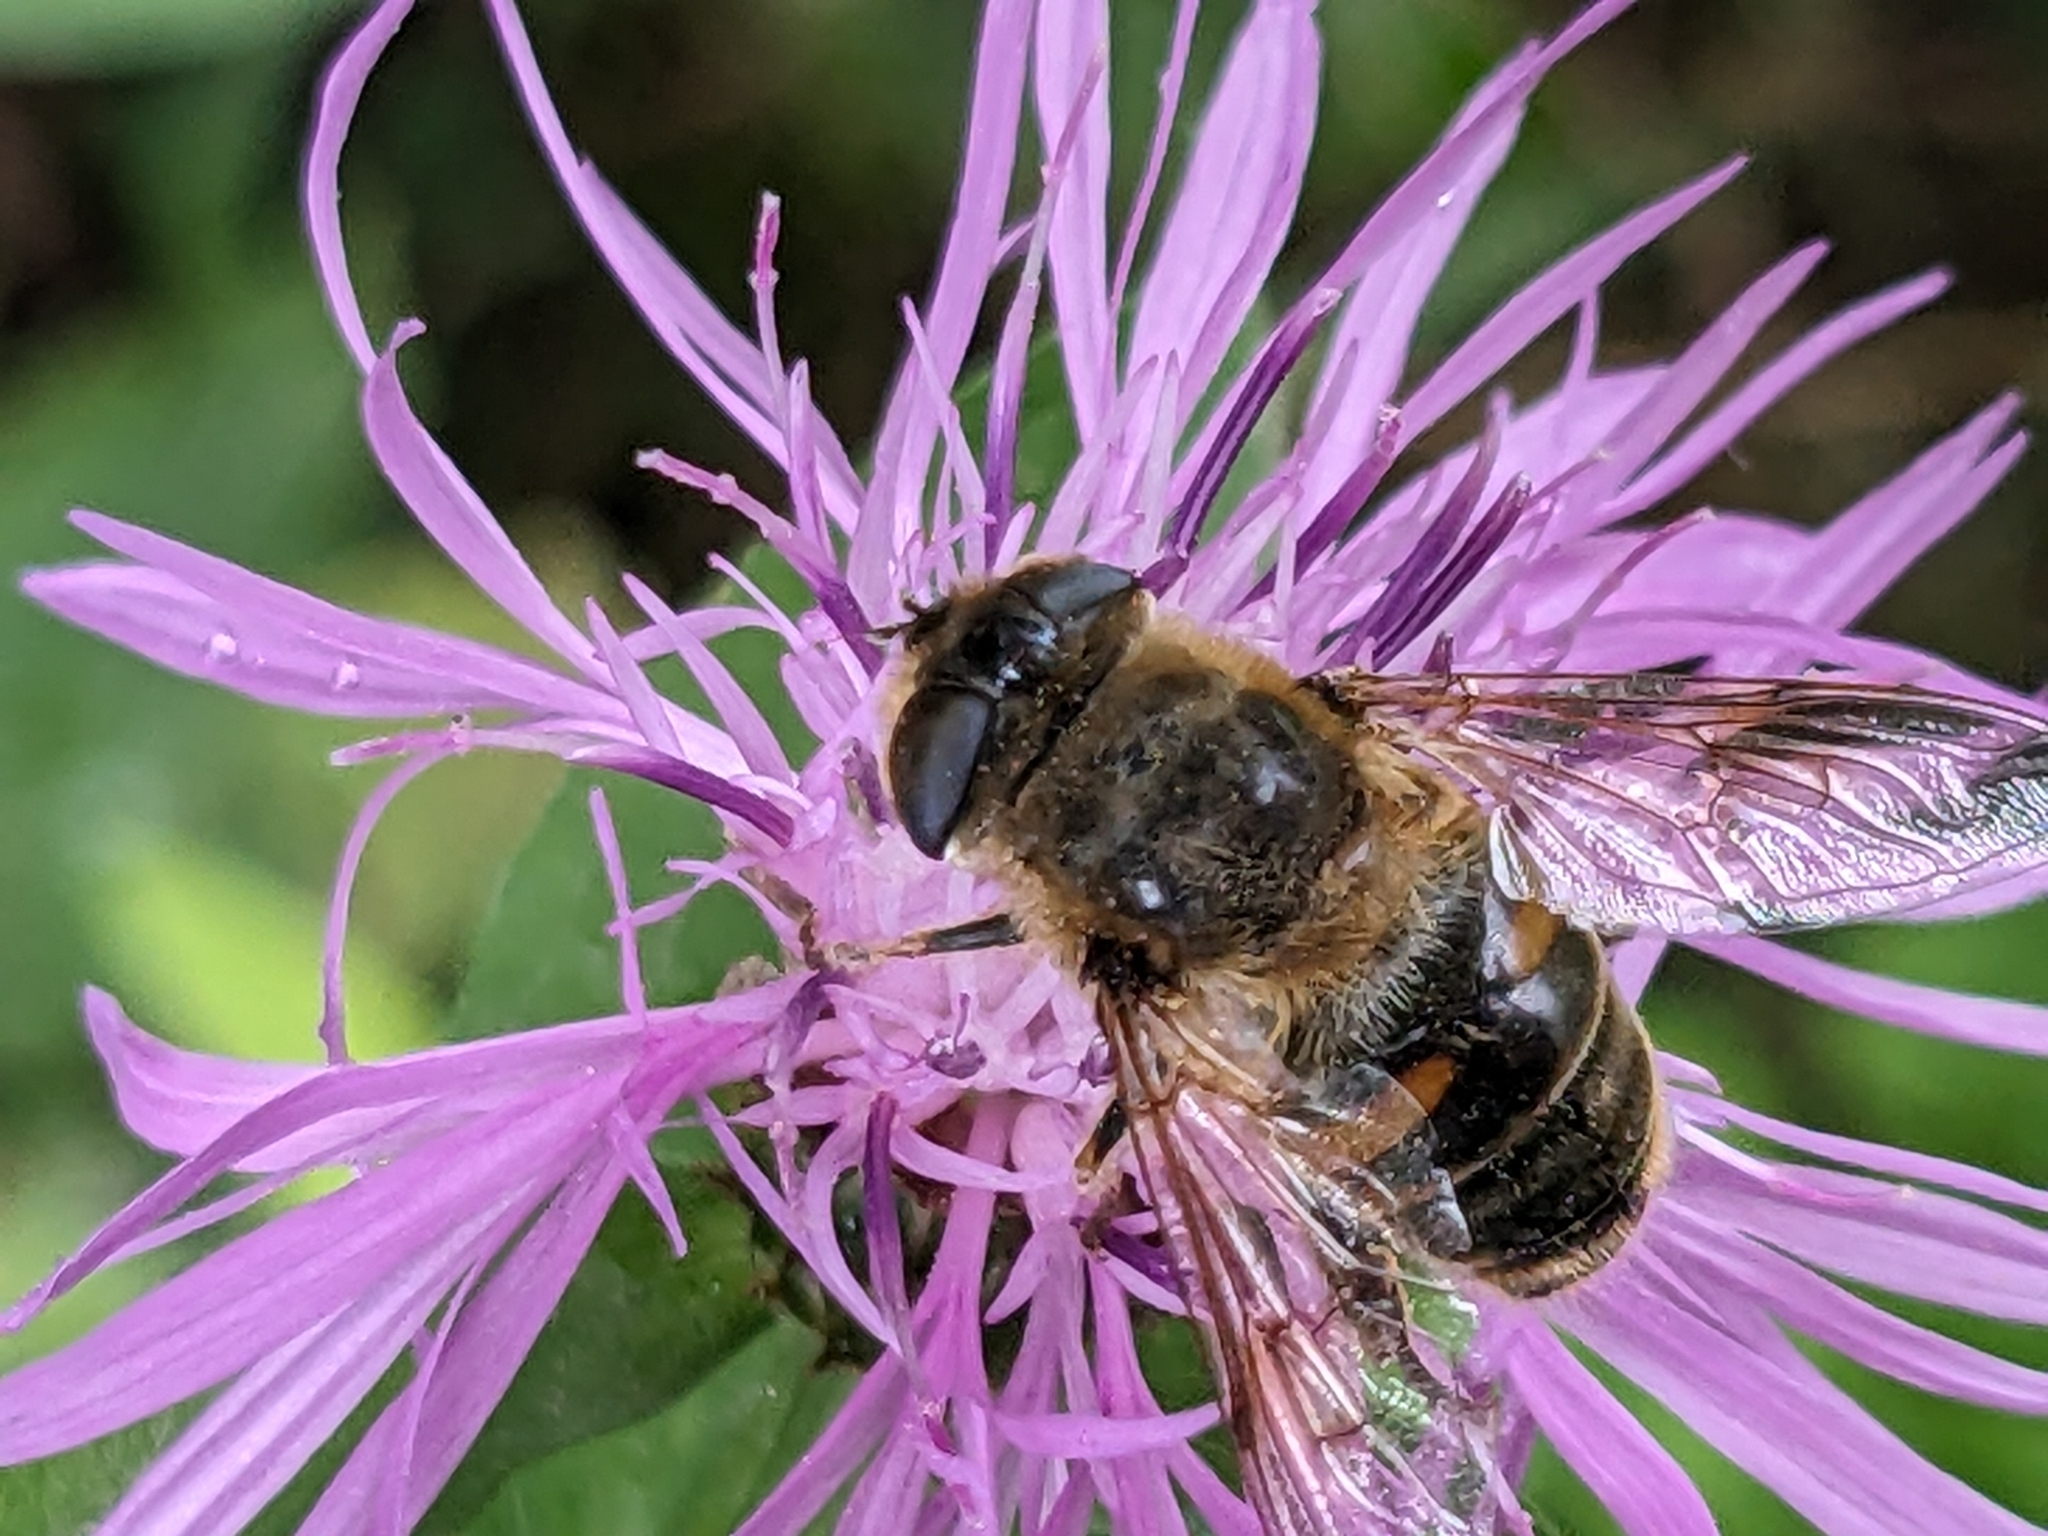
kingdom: Animalia
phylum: Arthropoda
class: Insecta
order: Diptera
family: Syrphidae
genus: Eristalis
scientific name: Eristalis tenax
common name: Drone fly
